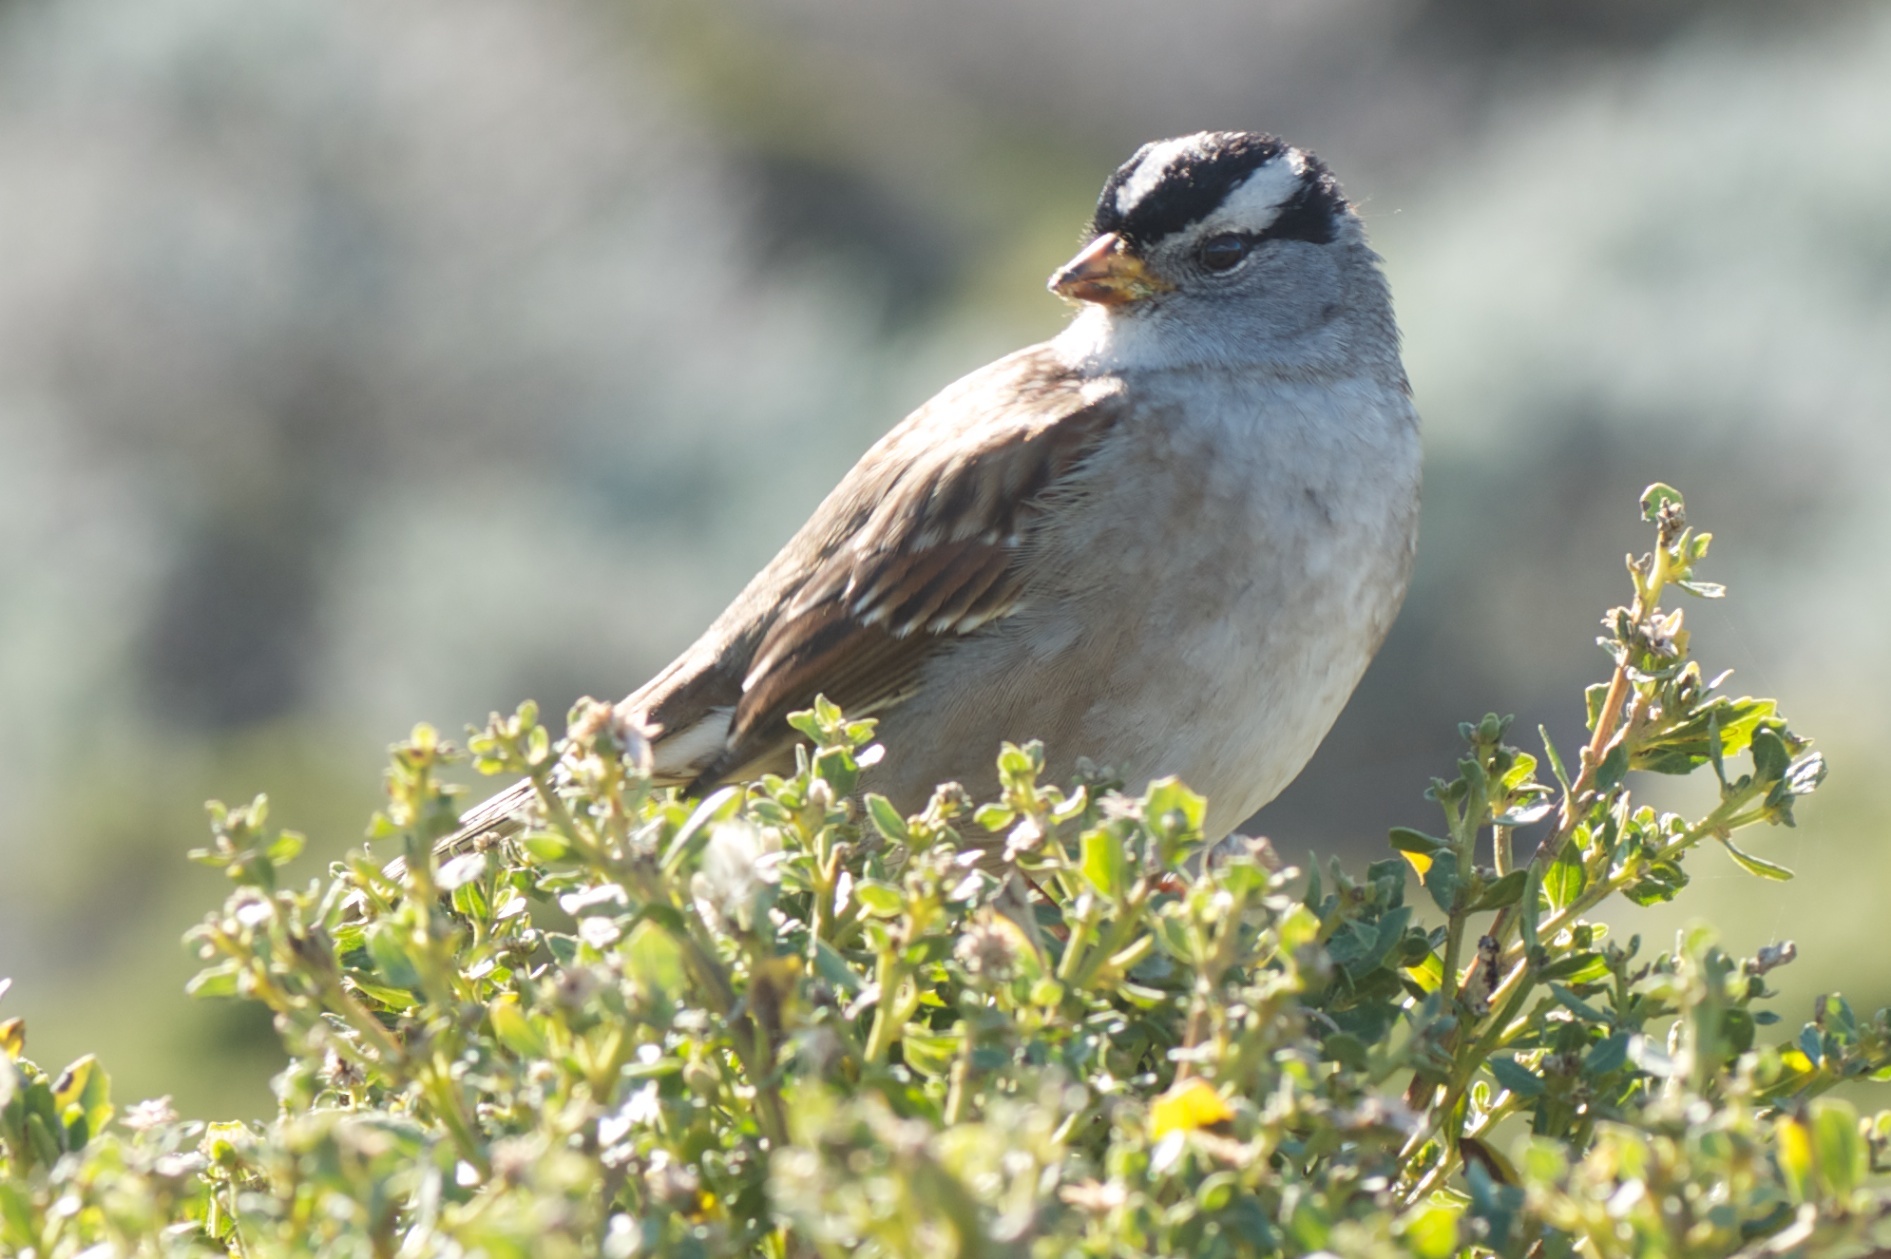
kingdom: Animalia
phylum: Chordata
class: Aves
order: Passeriformes
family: Passerellidae
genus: Zonotrichia
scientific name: Zonotrichia leucophrys
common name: White-crowned sparrow
